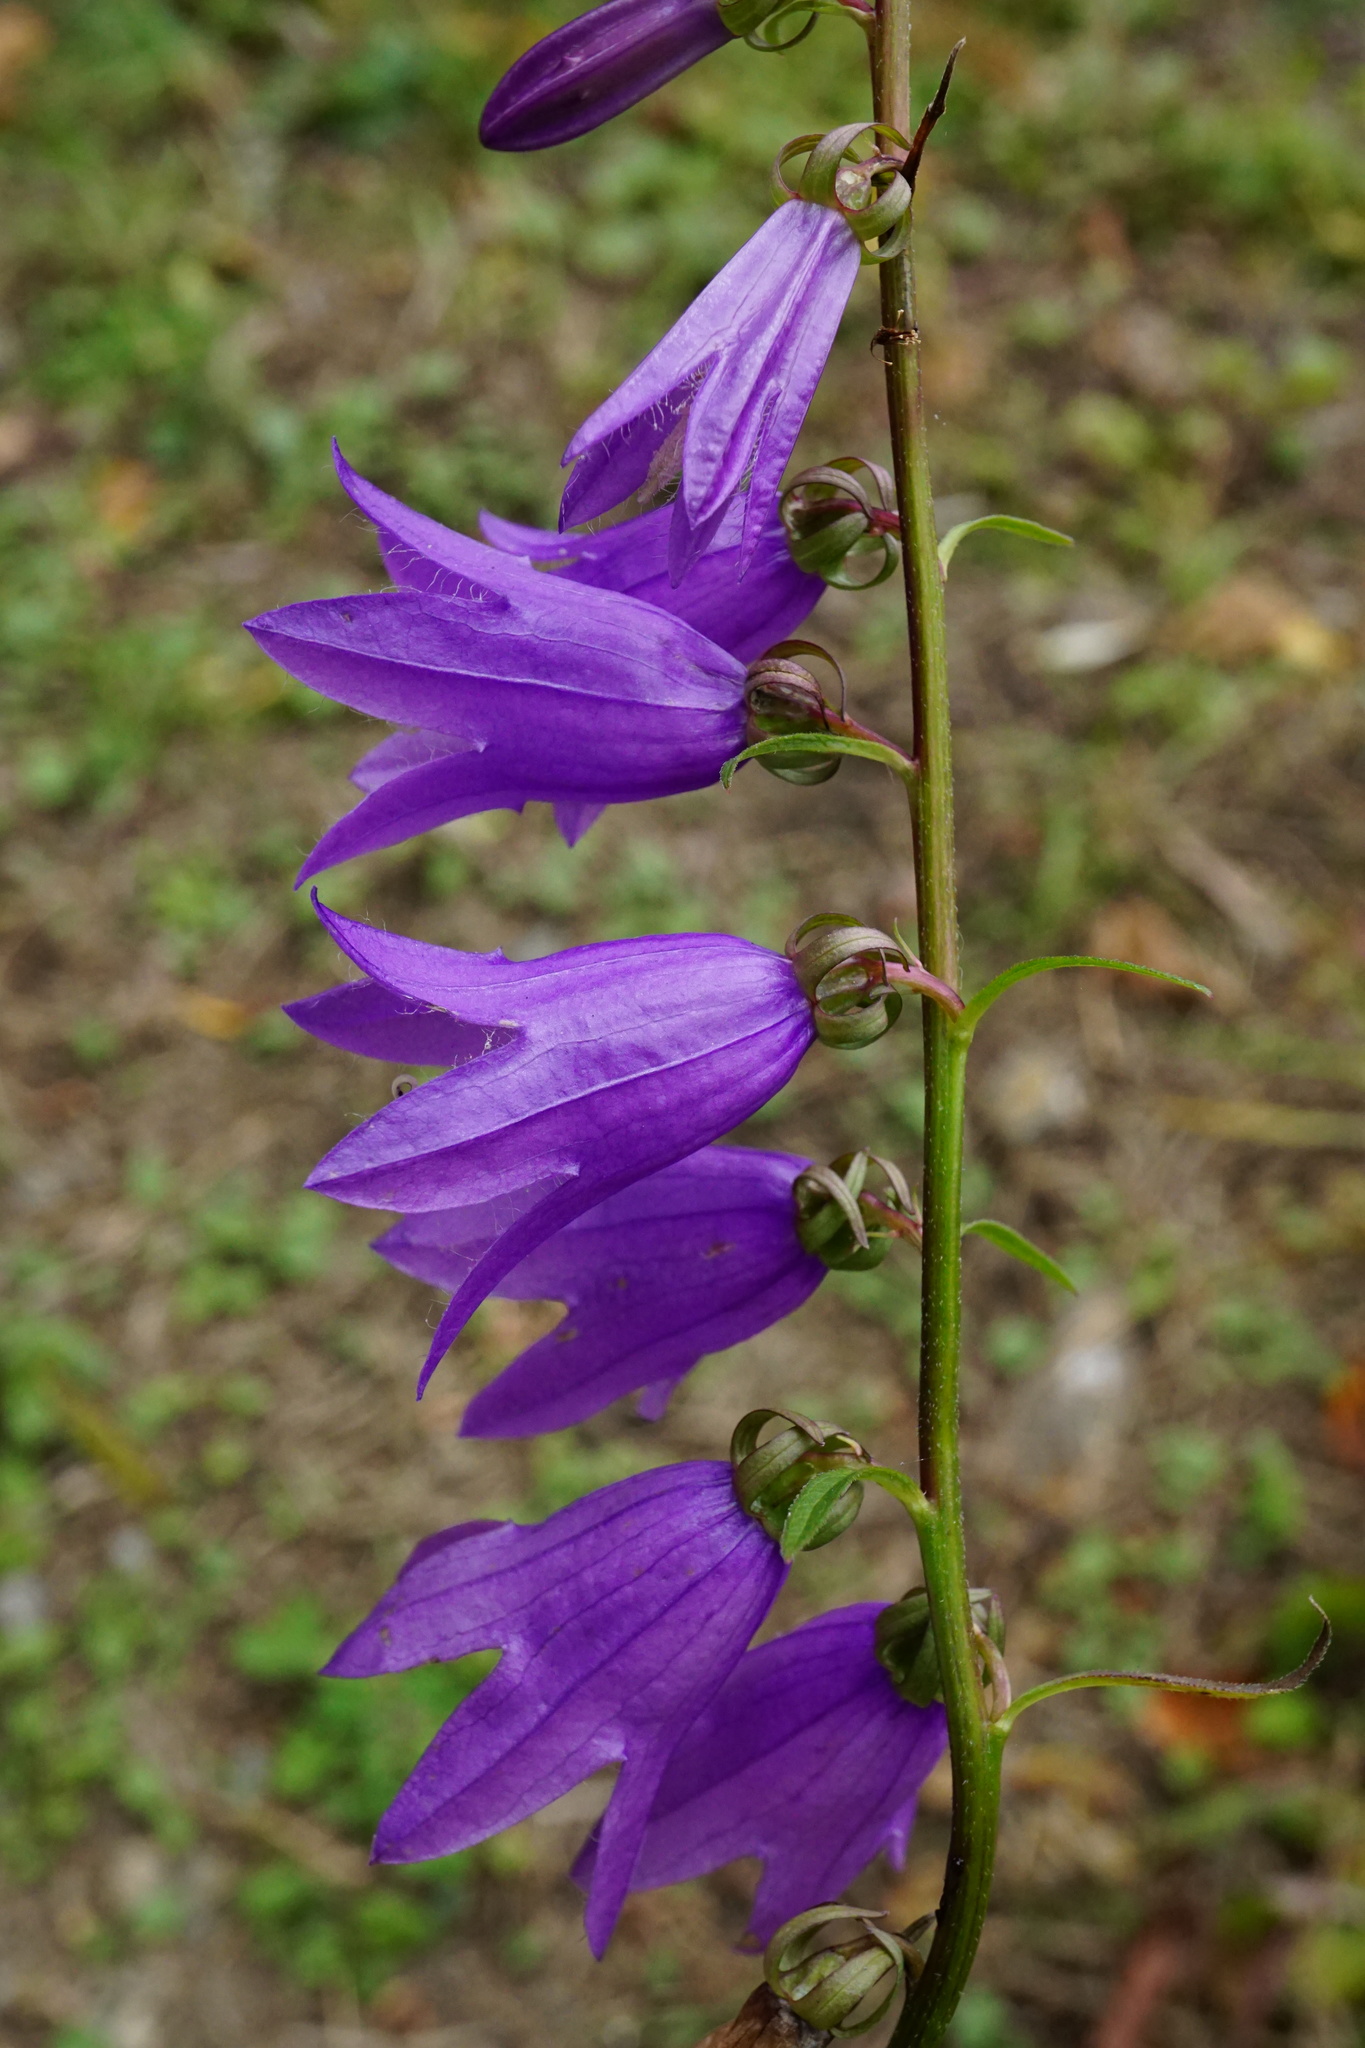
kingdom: Plantae
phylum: Tracheophyta
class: Magnoliopsida
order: Asterales
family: Campanulaceae
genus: Campanula
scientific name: Campanula rapunculoides
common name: Creeping bellflower
